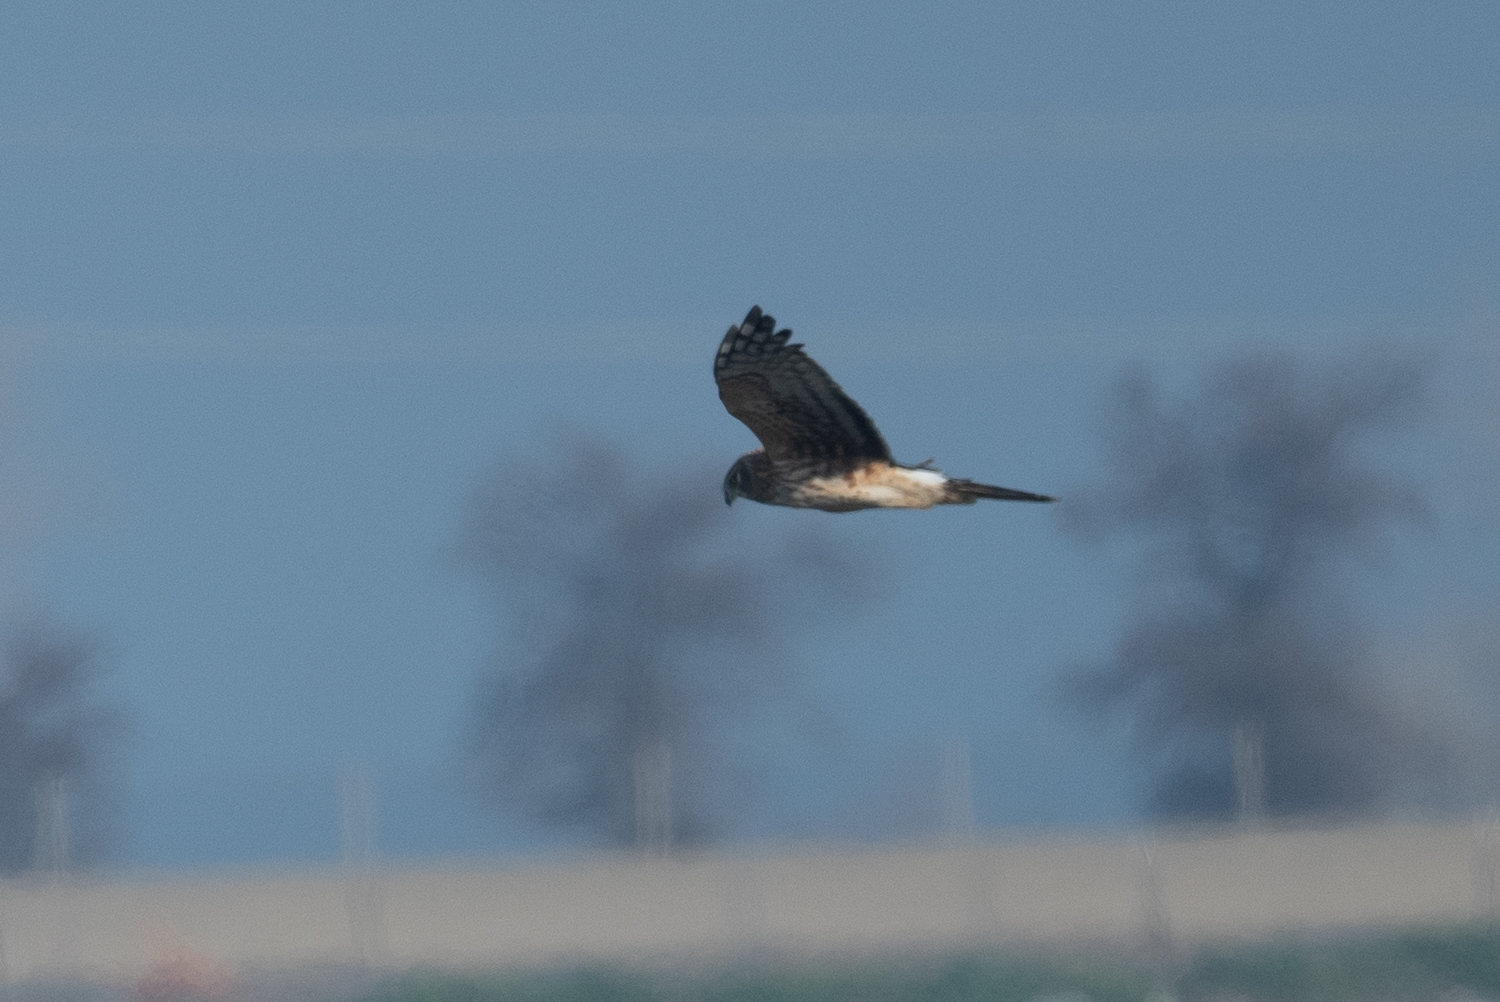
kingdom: Animalia
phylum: Chordata
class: Aves
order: Accipitriformes
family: Accipitridae
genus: Circus
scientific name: Circus cyaneus
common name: Hen harrier
